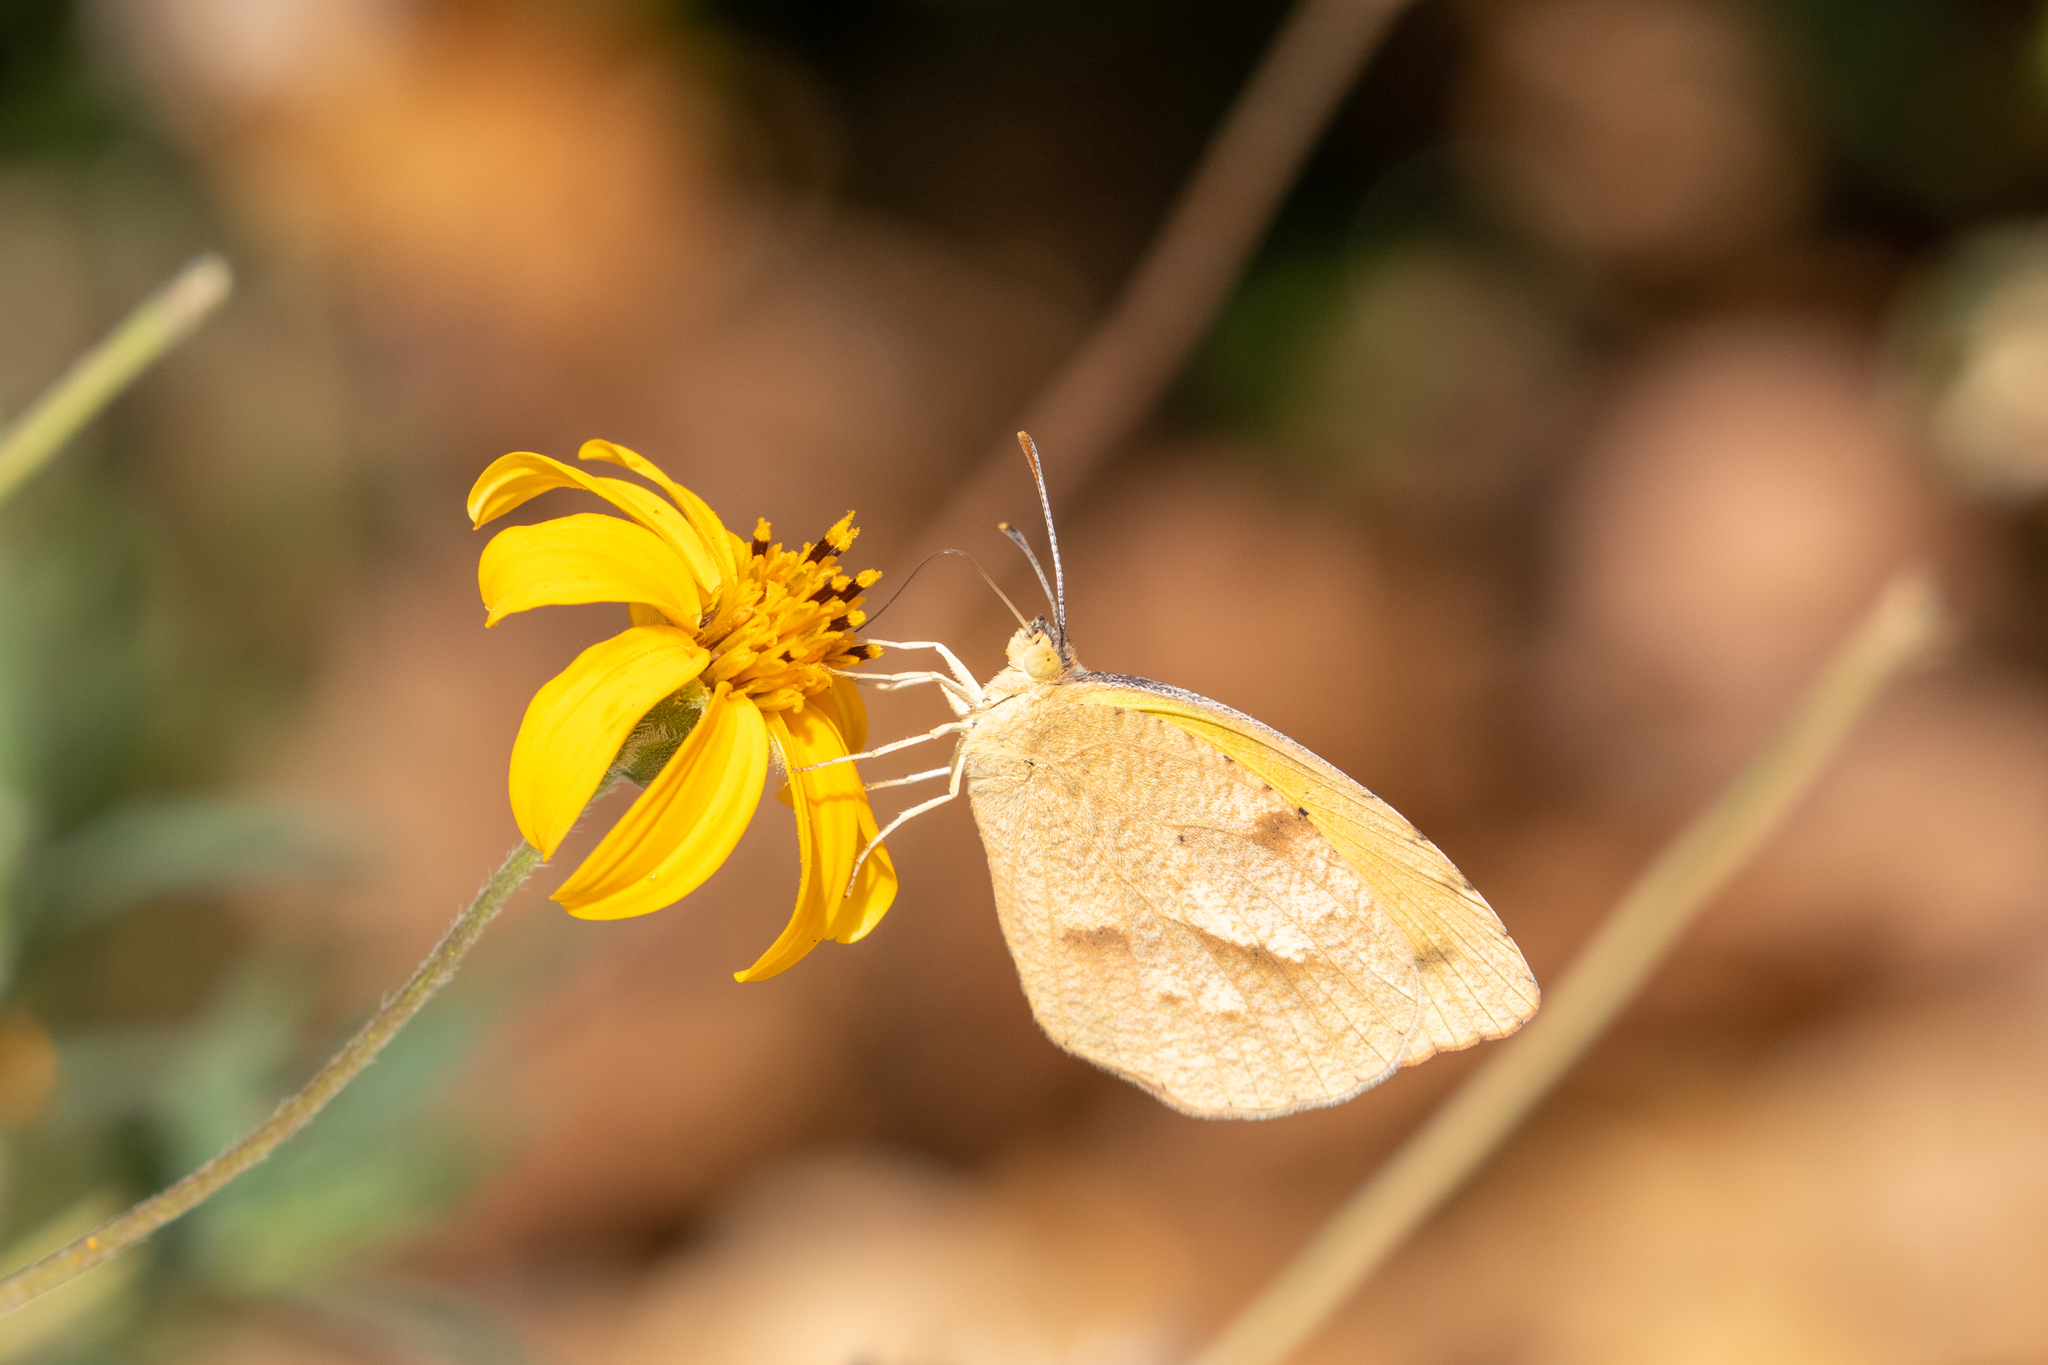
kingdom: Animalia
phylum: Arthropoda
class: Insecta
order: Lepidoptera
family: Pieridae
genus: Abaeis
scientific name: Abaeis nicippe
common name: Sleepy orange
